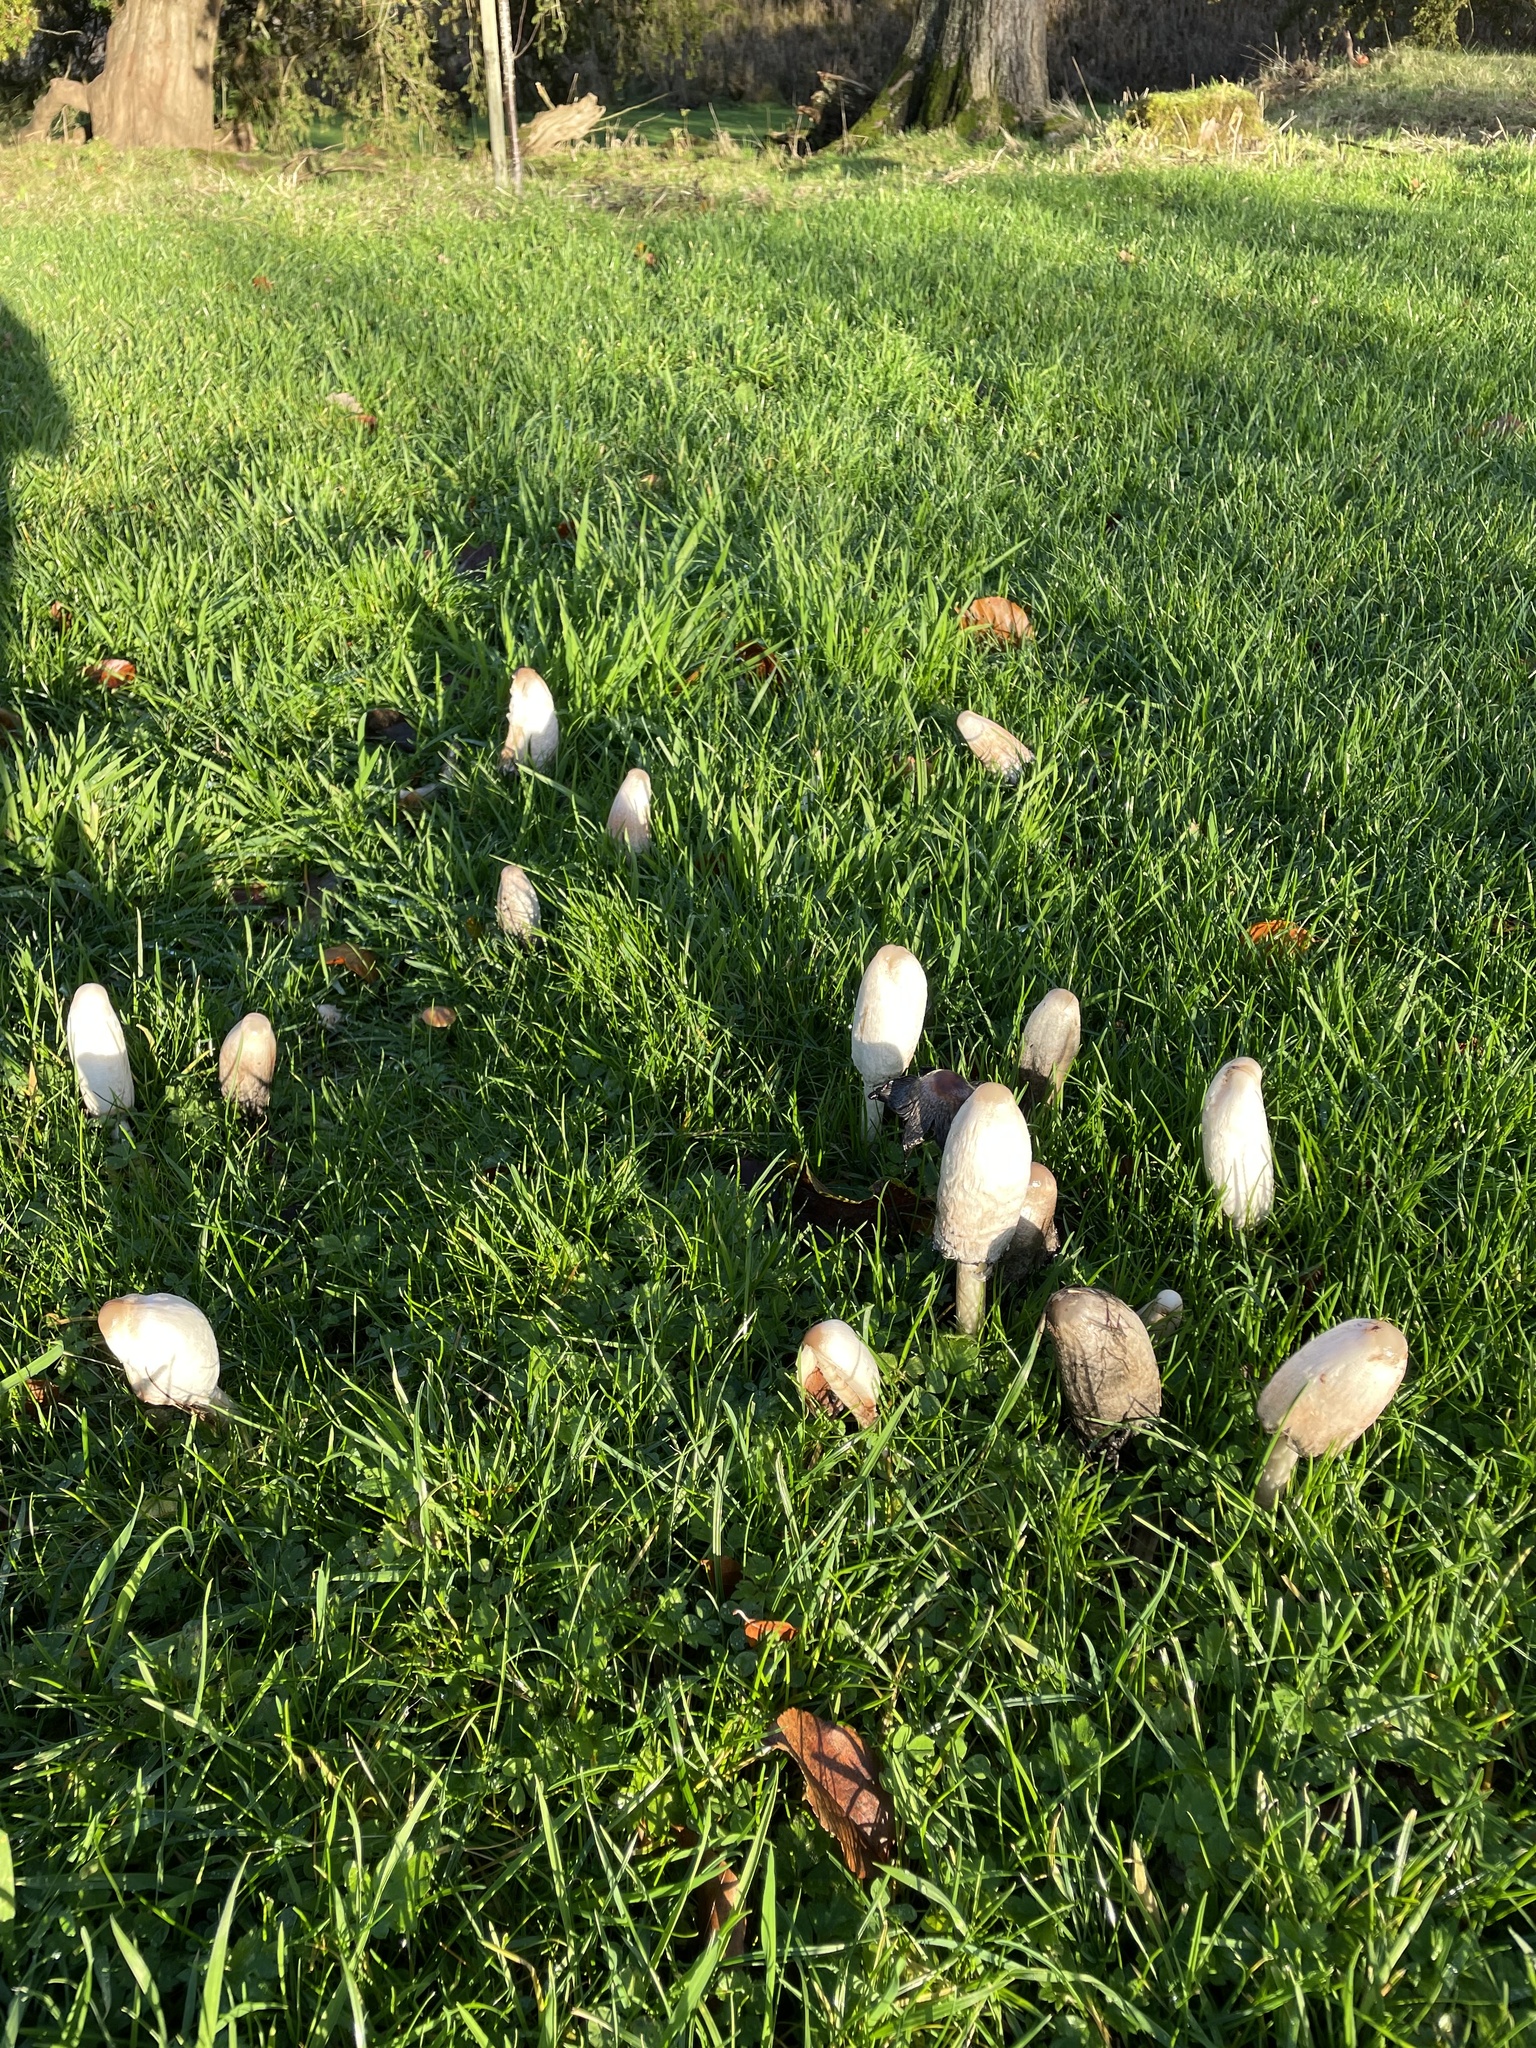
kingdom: Fungi
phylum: Basidiomycota
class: Agaricomycetes
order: Agaricales
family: Agaricaceae
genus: Coprinus
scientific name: Coprinus comatus
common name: Lawyer's wig
